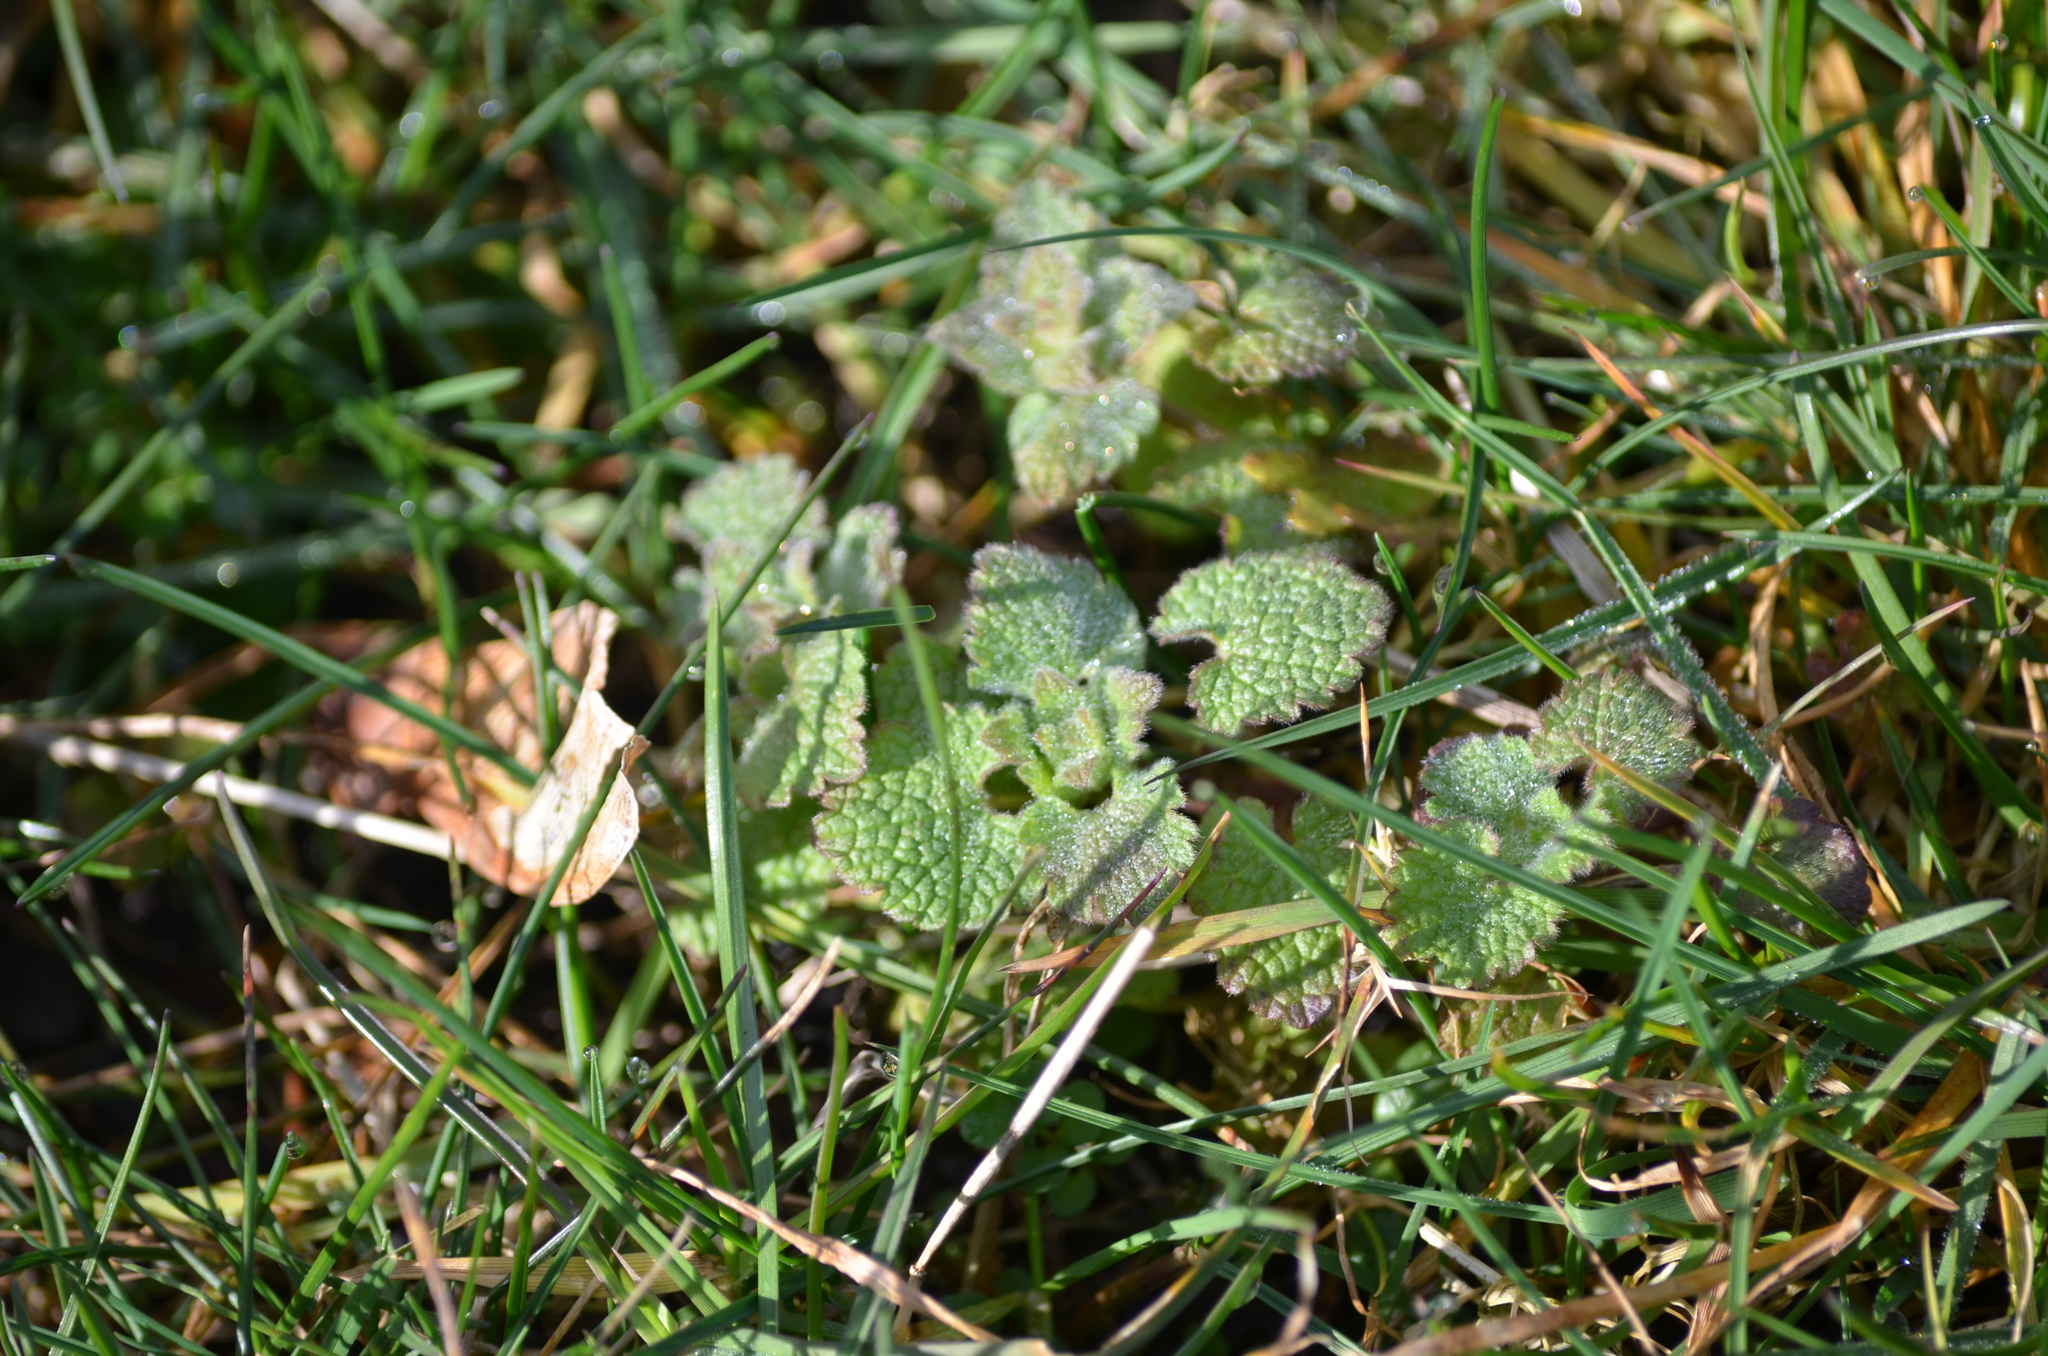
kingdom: Plantae
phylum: Tracheophyta
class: Magnoliopsida
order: Lamiales
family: Lamiaceae
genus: Lamium
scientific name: Lamium purpureum
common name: Red dead-nettle
